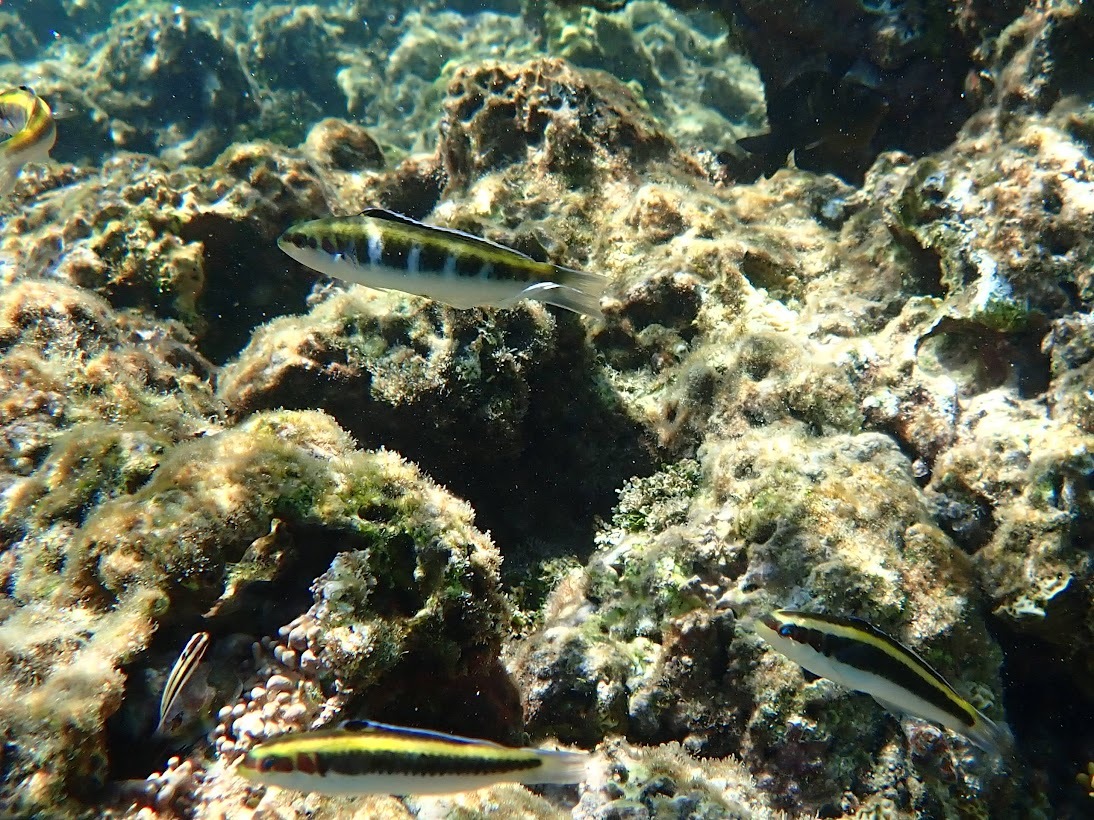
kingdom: Animalia
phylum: Chordata
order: Perciformes
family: Labridae
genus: Thalassoma
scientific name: Thalassoma bifasciatum
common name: Bluehead wrasse
